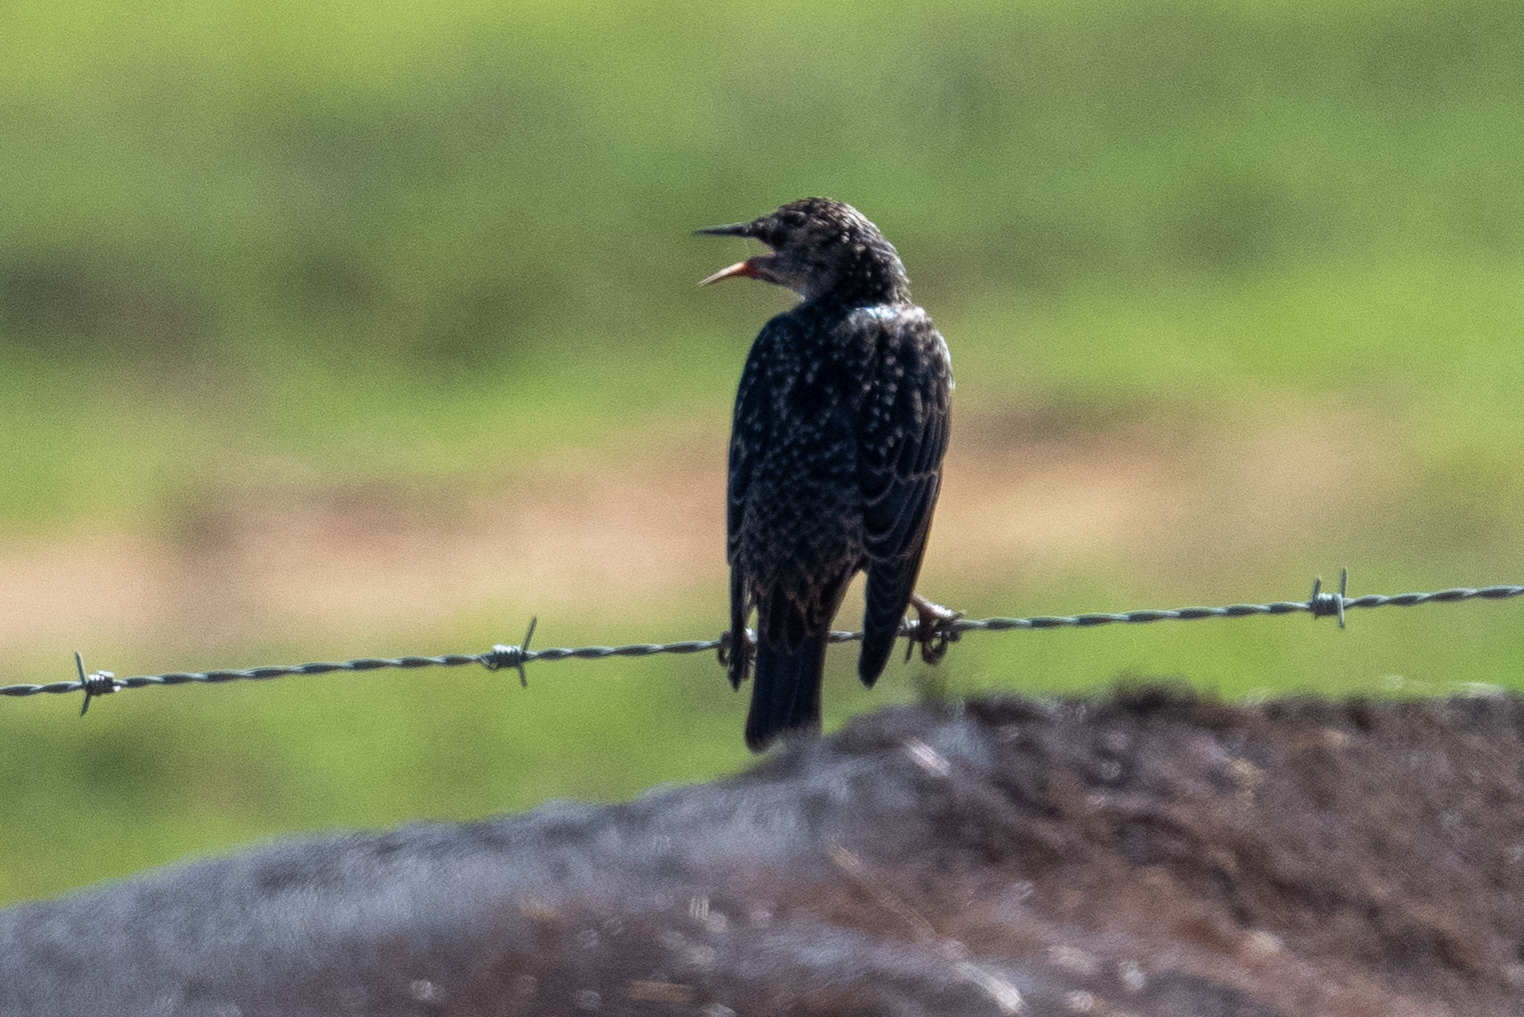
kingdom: Animalia
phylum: Chordata
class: Aves
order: Passeriformes
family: Sturnidae
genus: Sturnus
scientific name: Sturnus vulgaris
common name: Common starling
